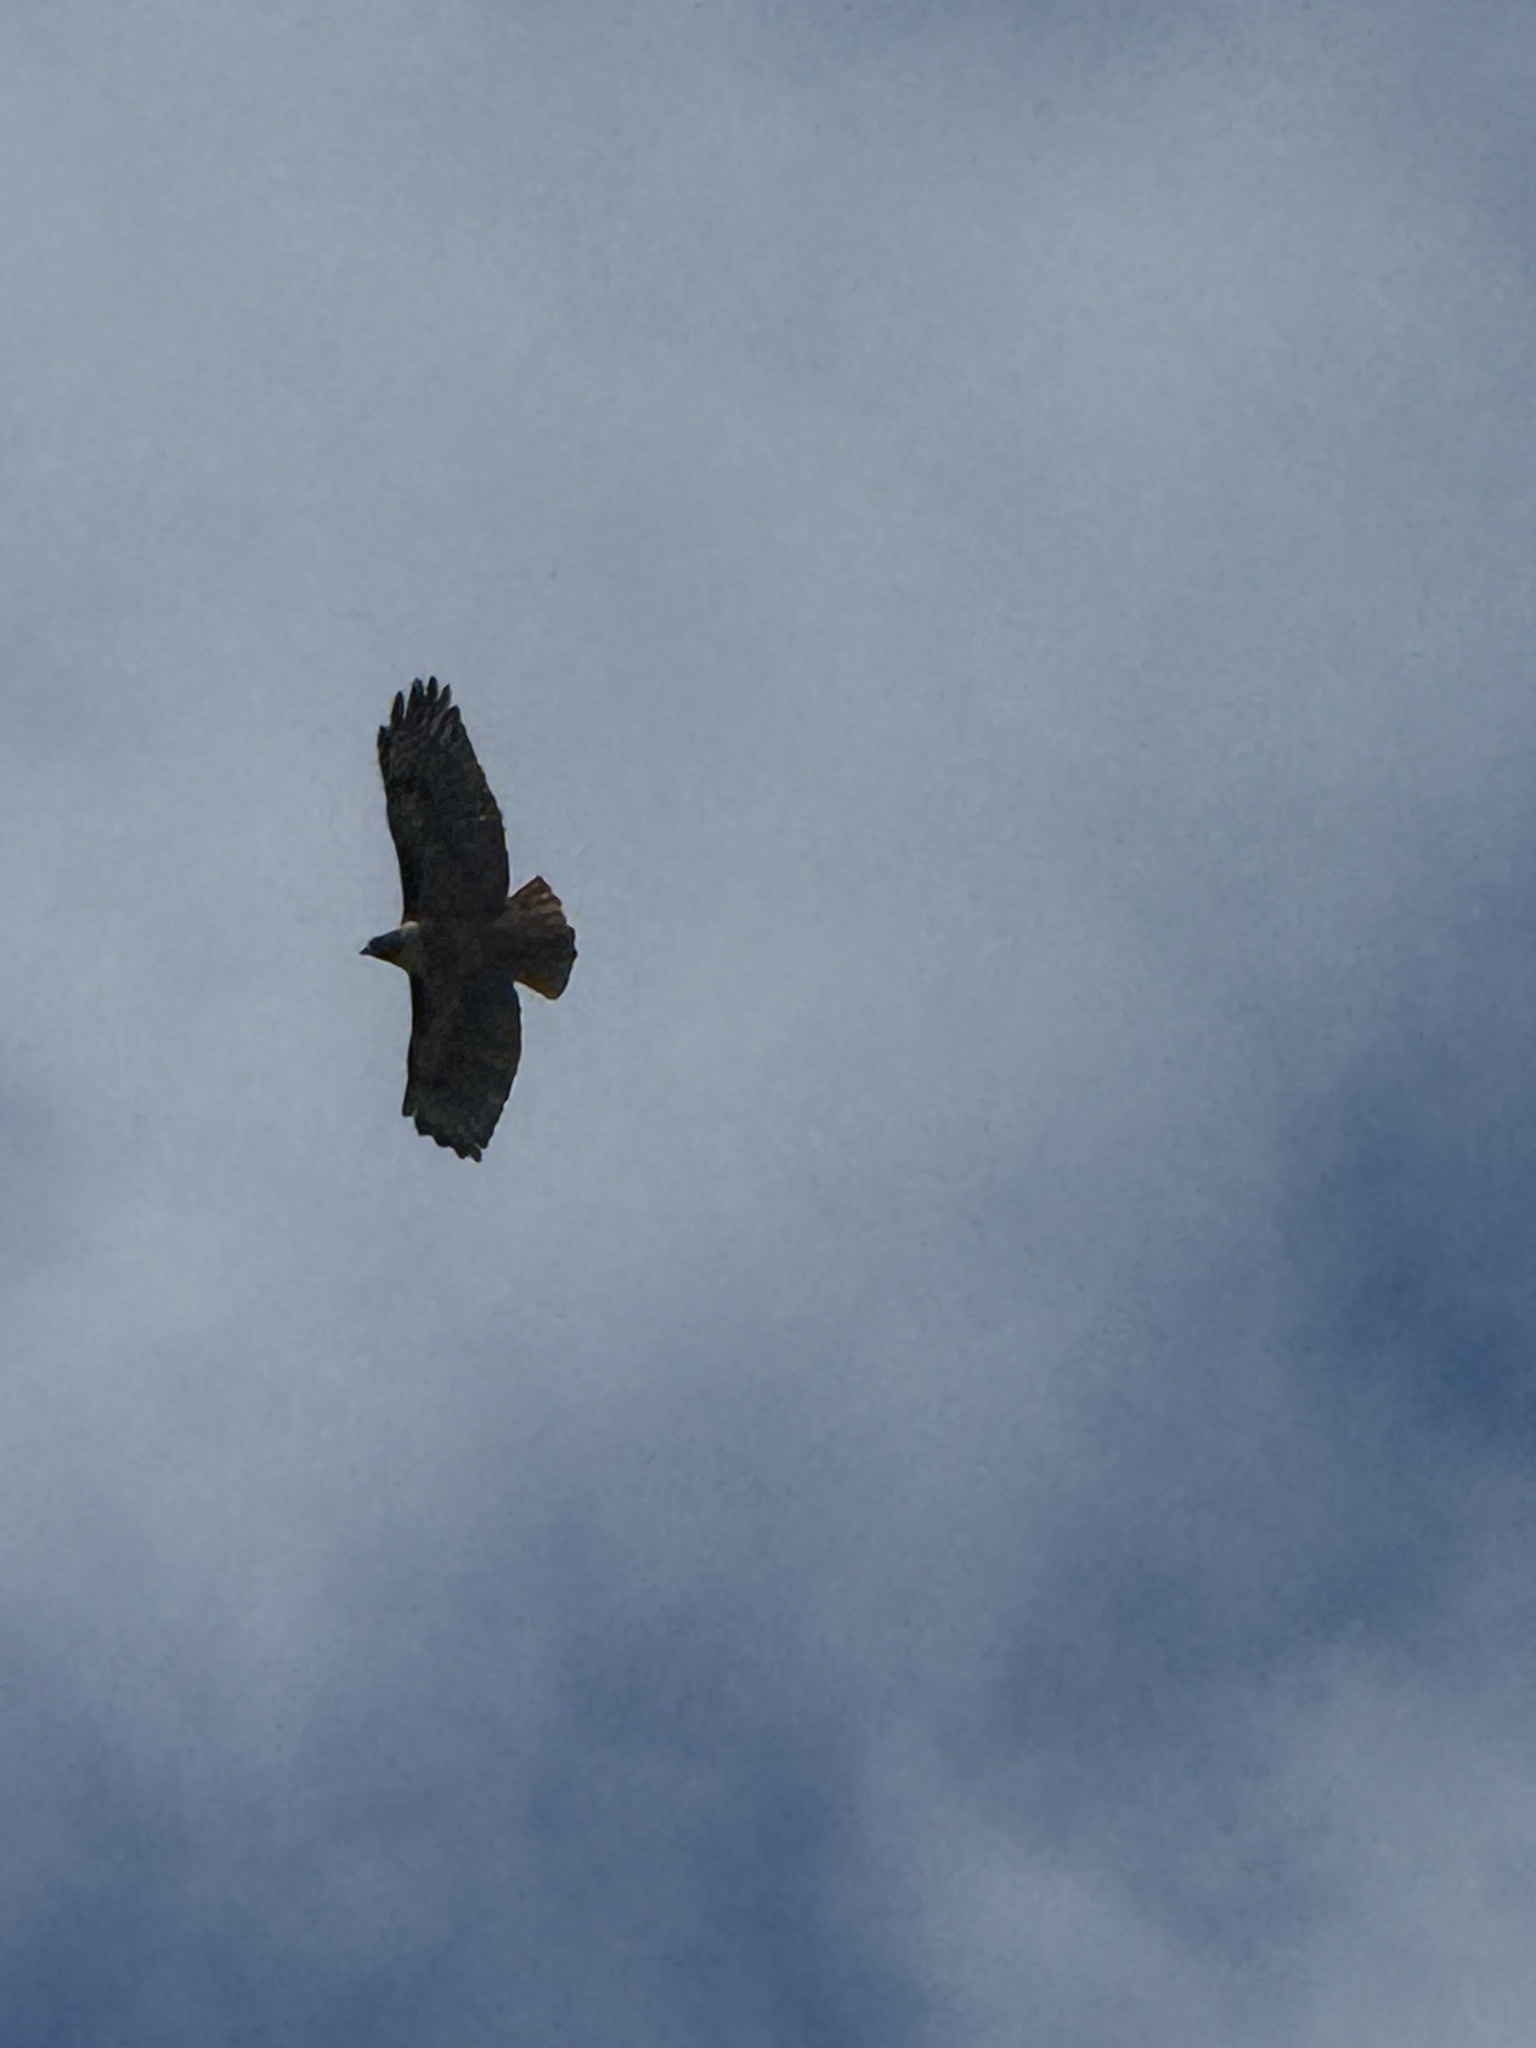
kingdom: Animalia
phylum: Chordata
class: Aves
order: Accipitriformes
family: Accipitridae
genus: Buteo
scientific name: Buteo jamaicensis
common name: Red-tailed hawk
